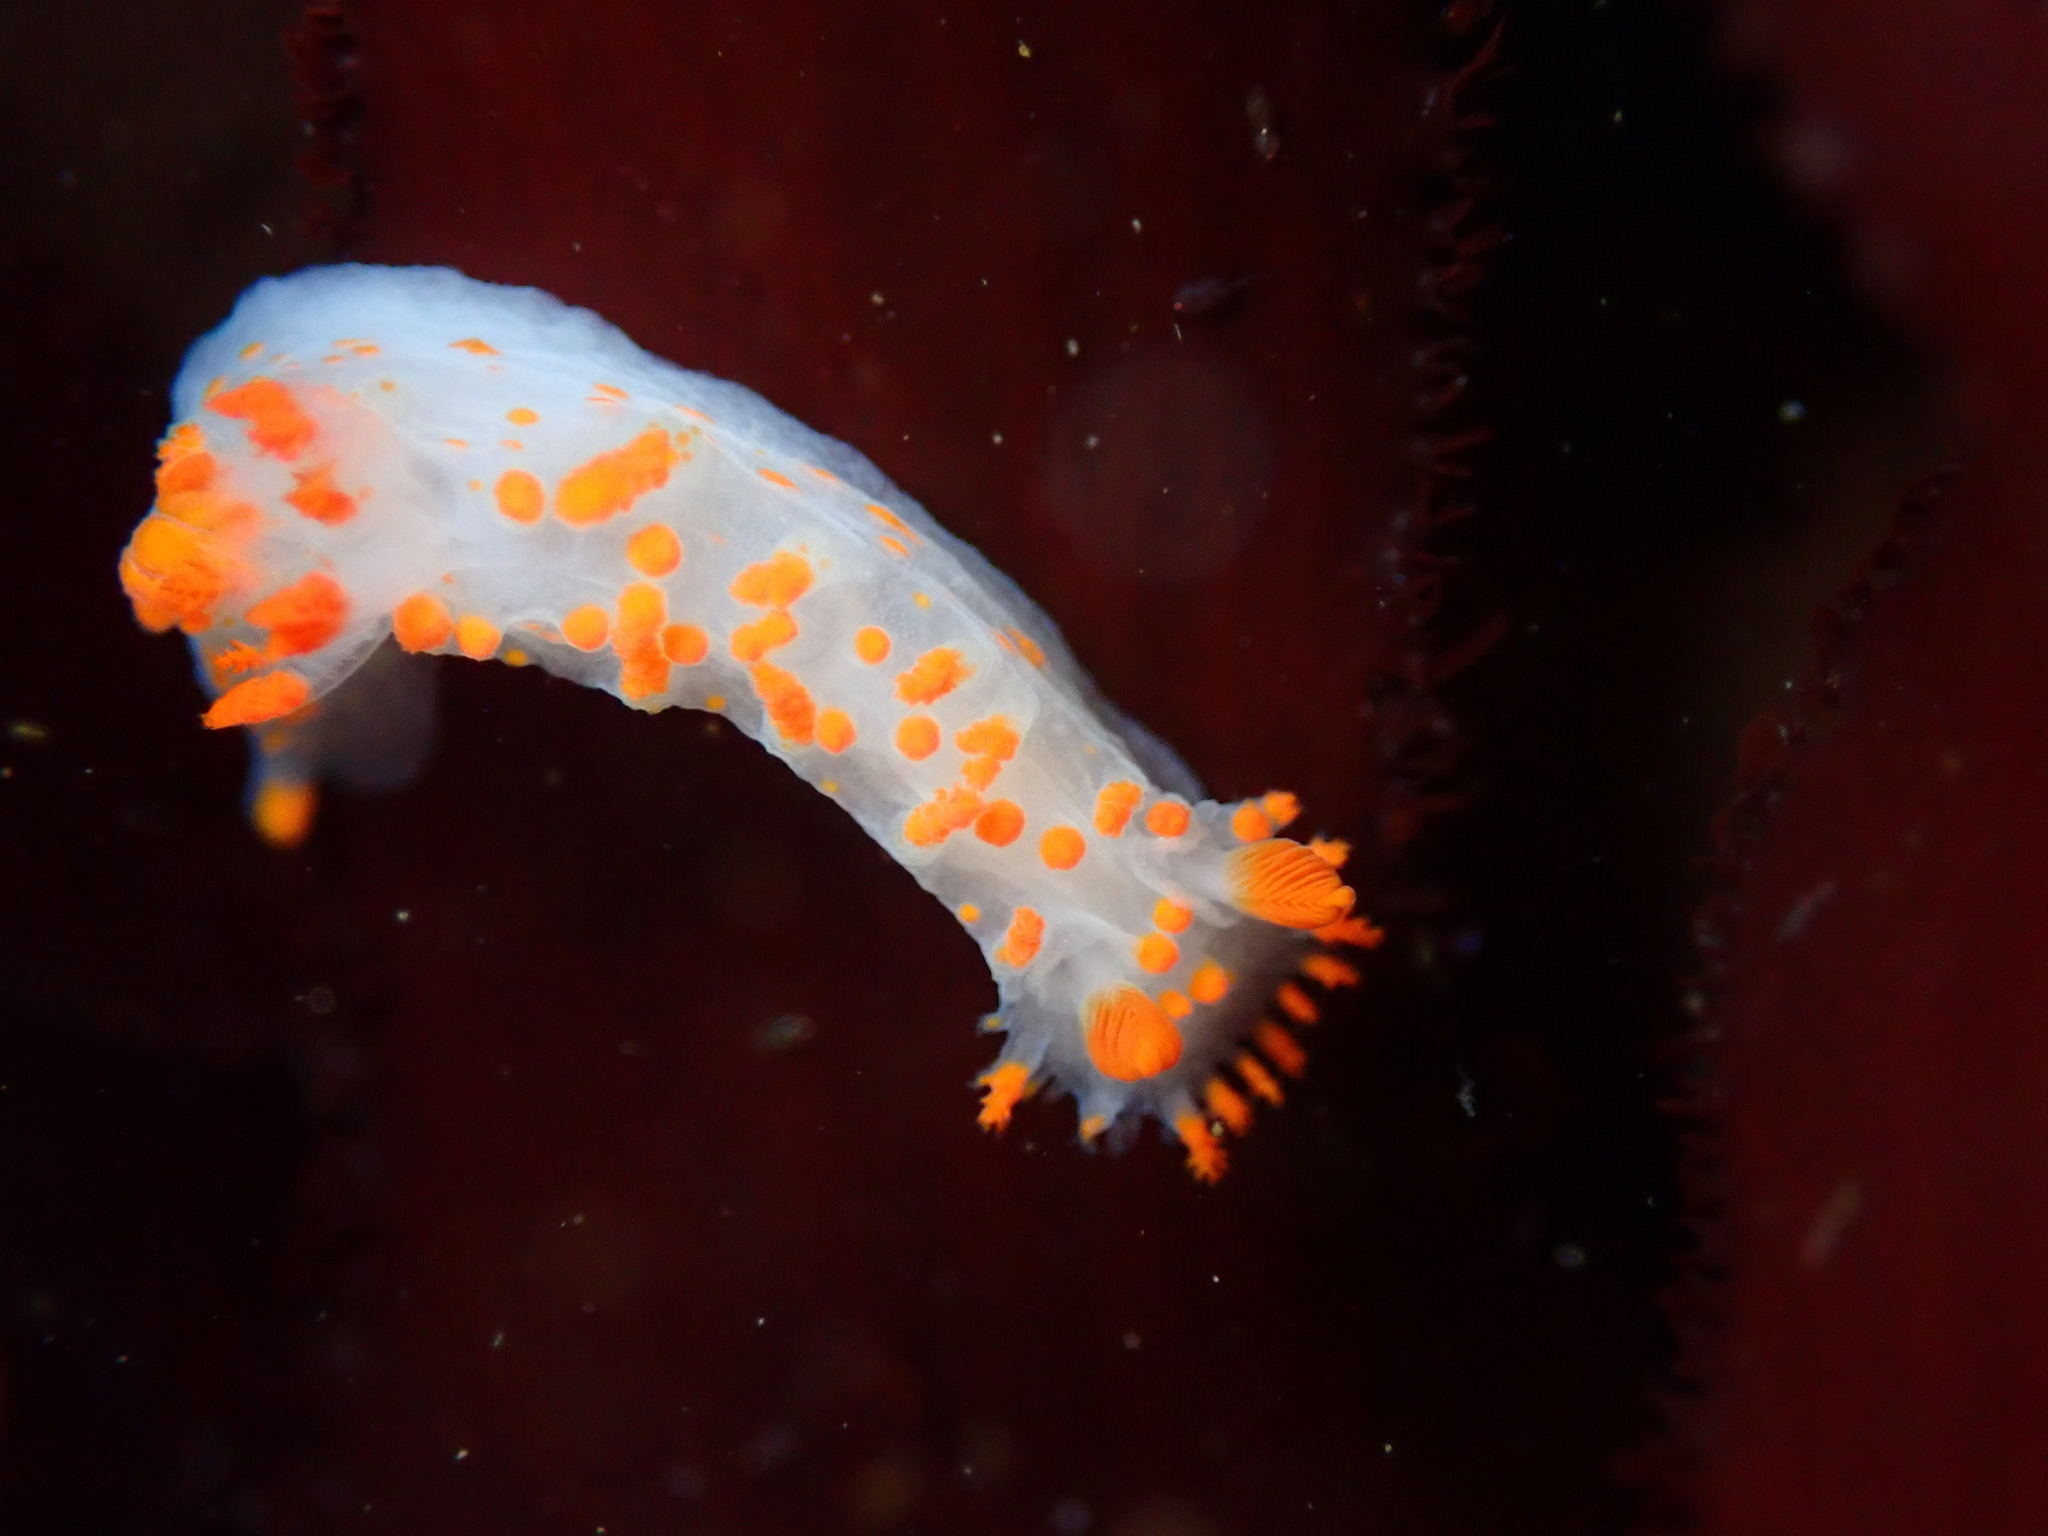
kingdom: Animalia
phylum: Mollusca
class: Gastropoda
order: Nudibranchia
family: Polyceridae
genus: Triopha
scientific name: Triopha catalinae
